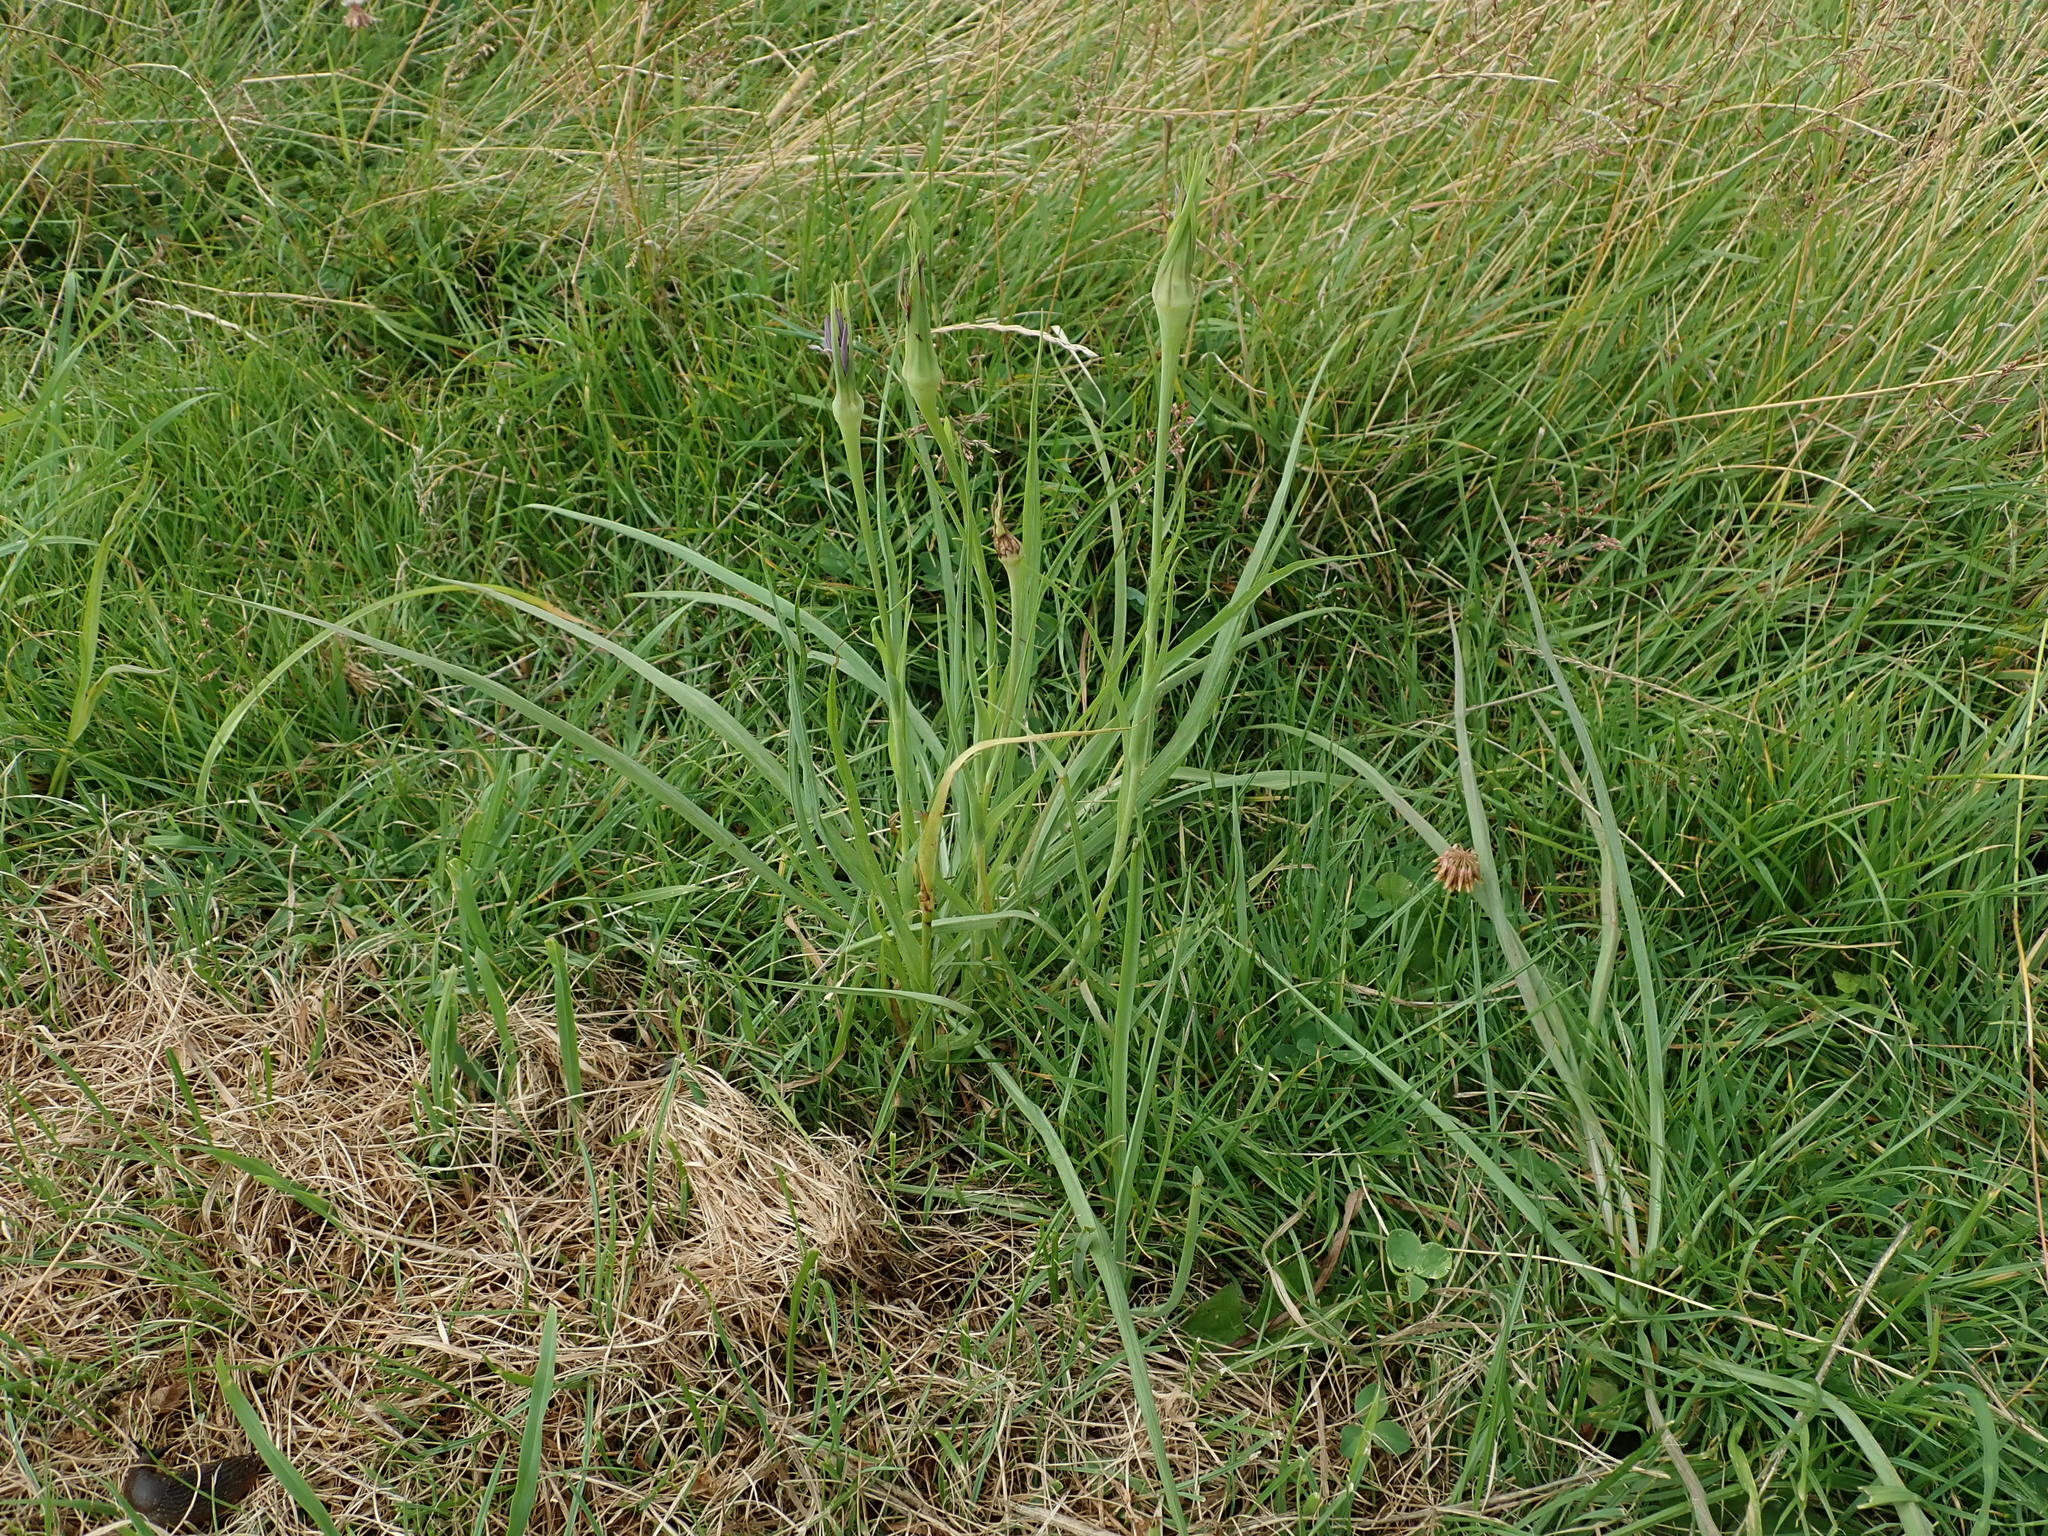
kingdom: Plantae
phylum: Tracheophyta
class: Magnoliopsida
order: Asterales
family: Asteraceae
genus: Tragopogon
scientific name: Tragopogon porrifolius
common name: Salsify
